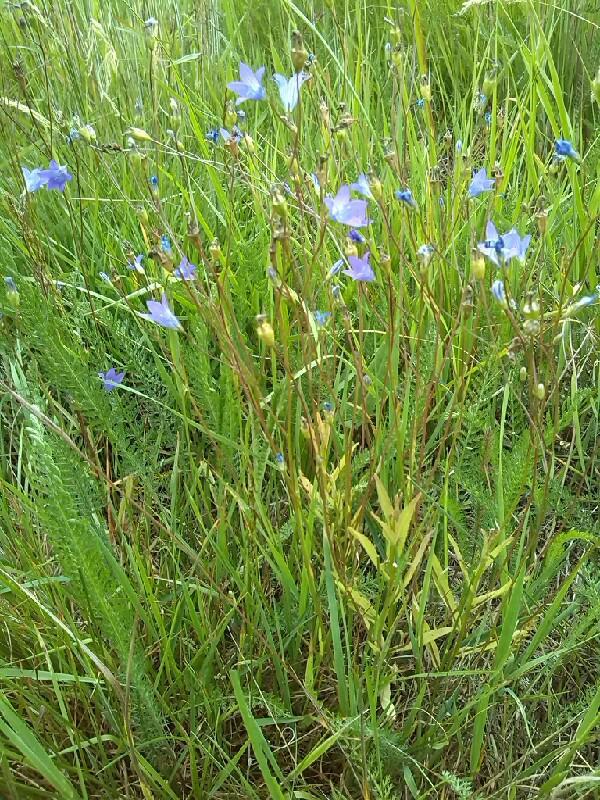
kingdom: Plantae
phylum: Tracheophyta
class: Magnoliopsida
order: Asterales
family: Campanulaceae
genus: Campanula
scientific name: Campanula patula
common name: Spreading bellflower
